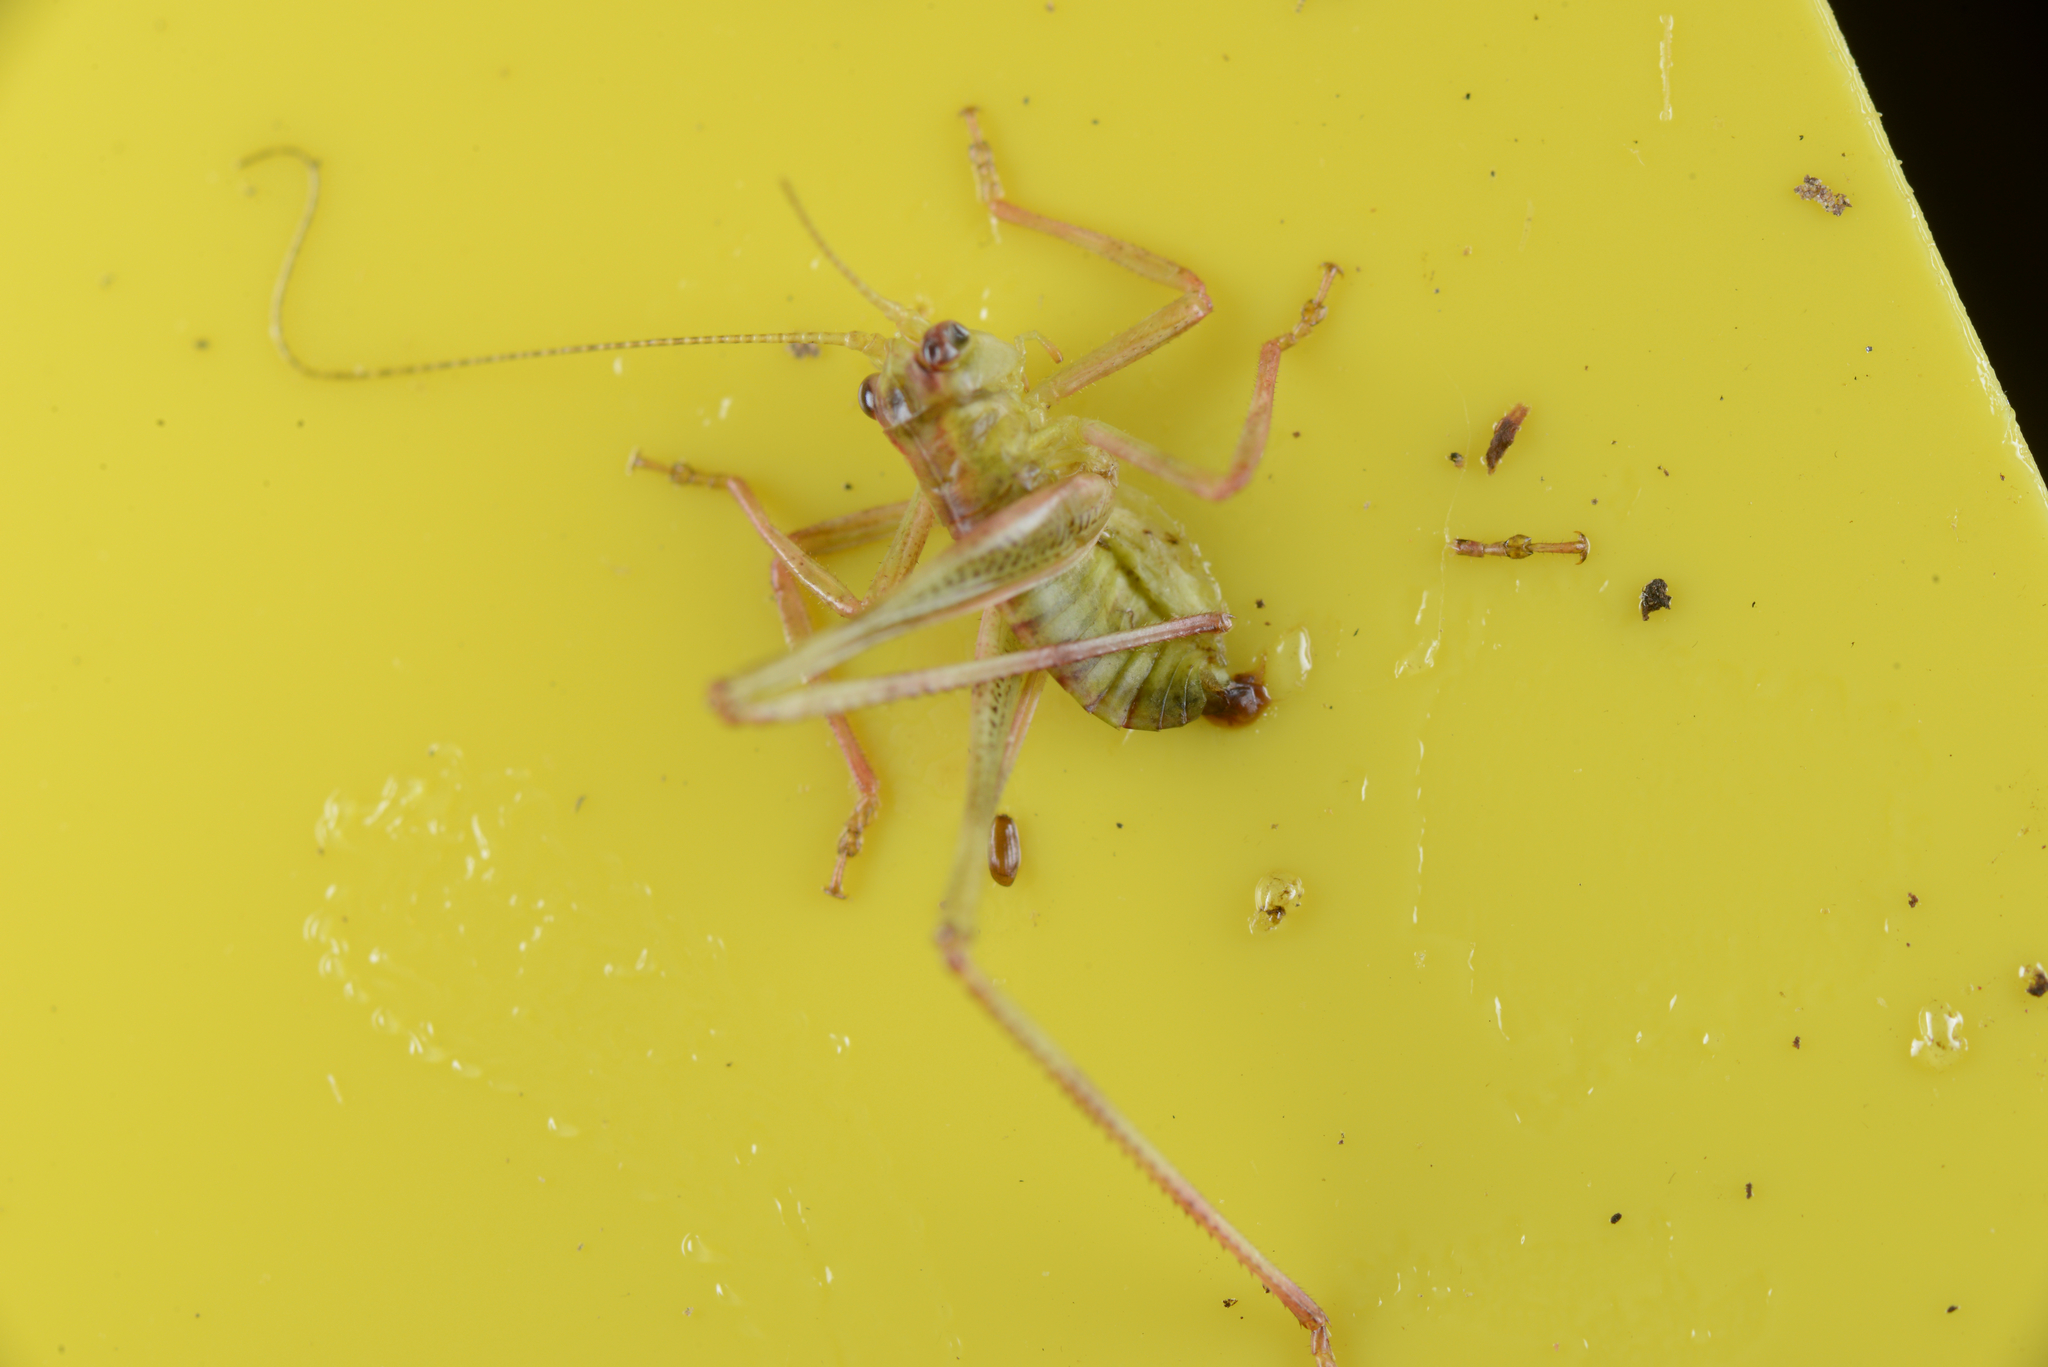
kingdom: Animalia
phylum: Arthropoda
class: Insecta
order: Orthoptera
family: Tettigoniidae
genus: Caedicia
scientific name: Caedicia simplex
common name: Common garden katydid
